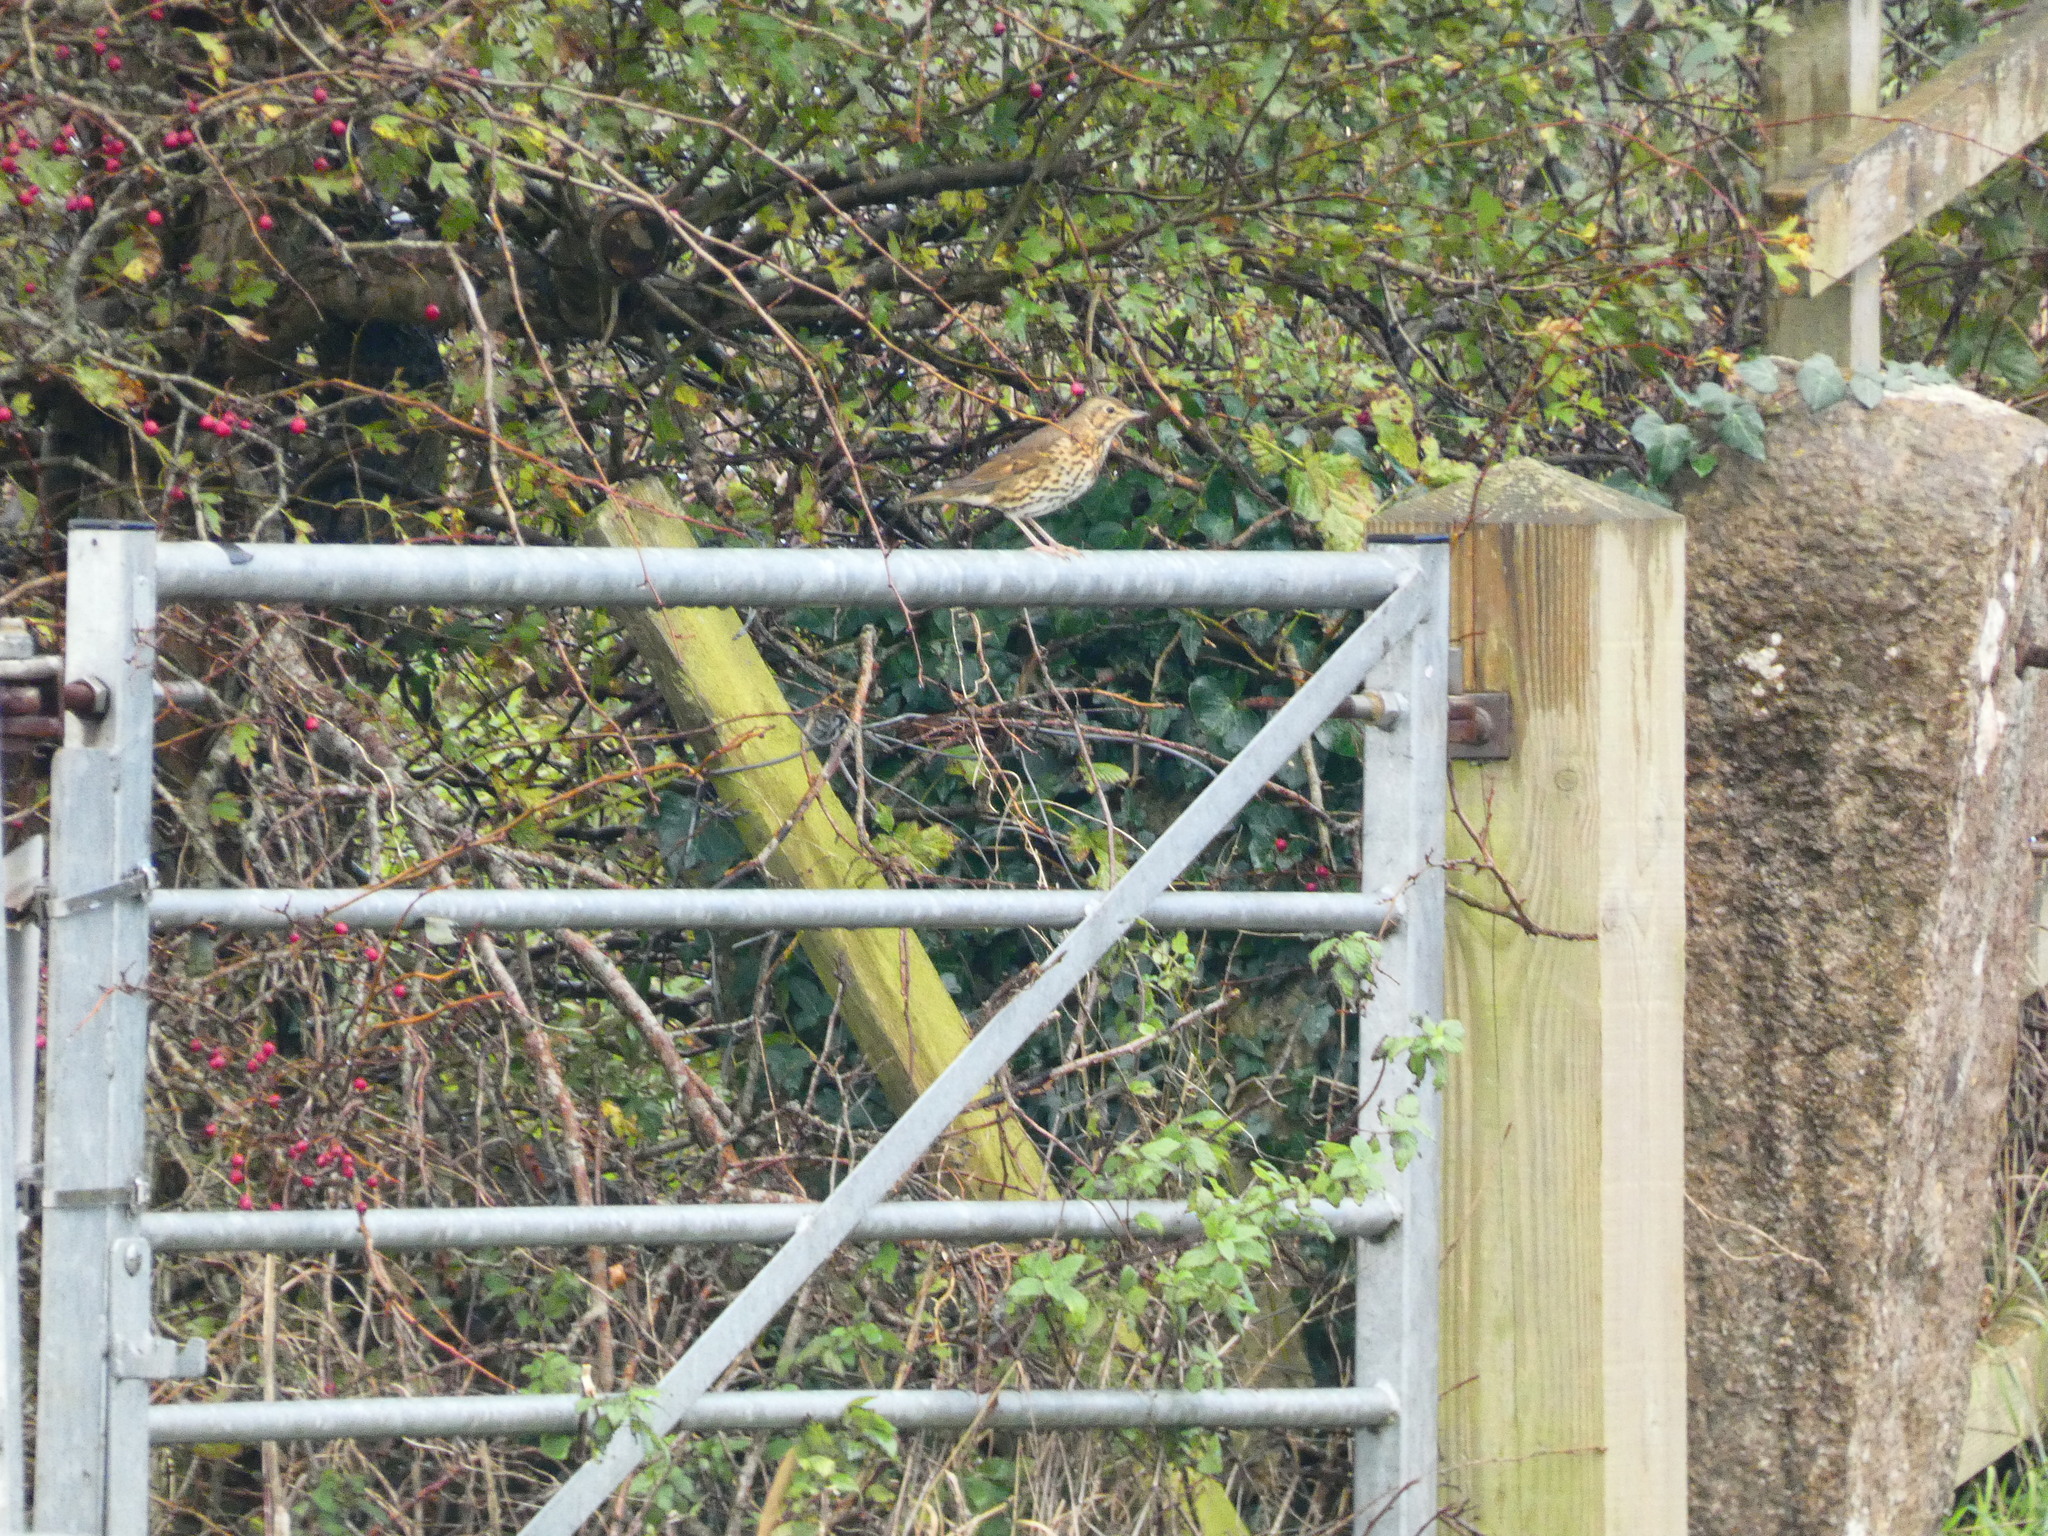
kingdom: Animalia
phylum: Chordata
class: Aves
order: Passeriformes
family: Turdidae
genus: Turdus
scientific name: Turdus philomelos
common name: Song thrush
